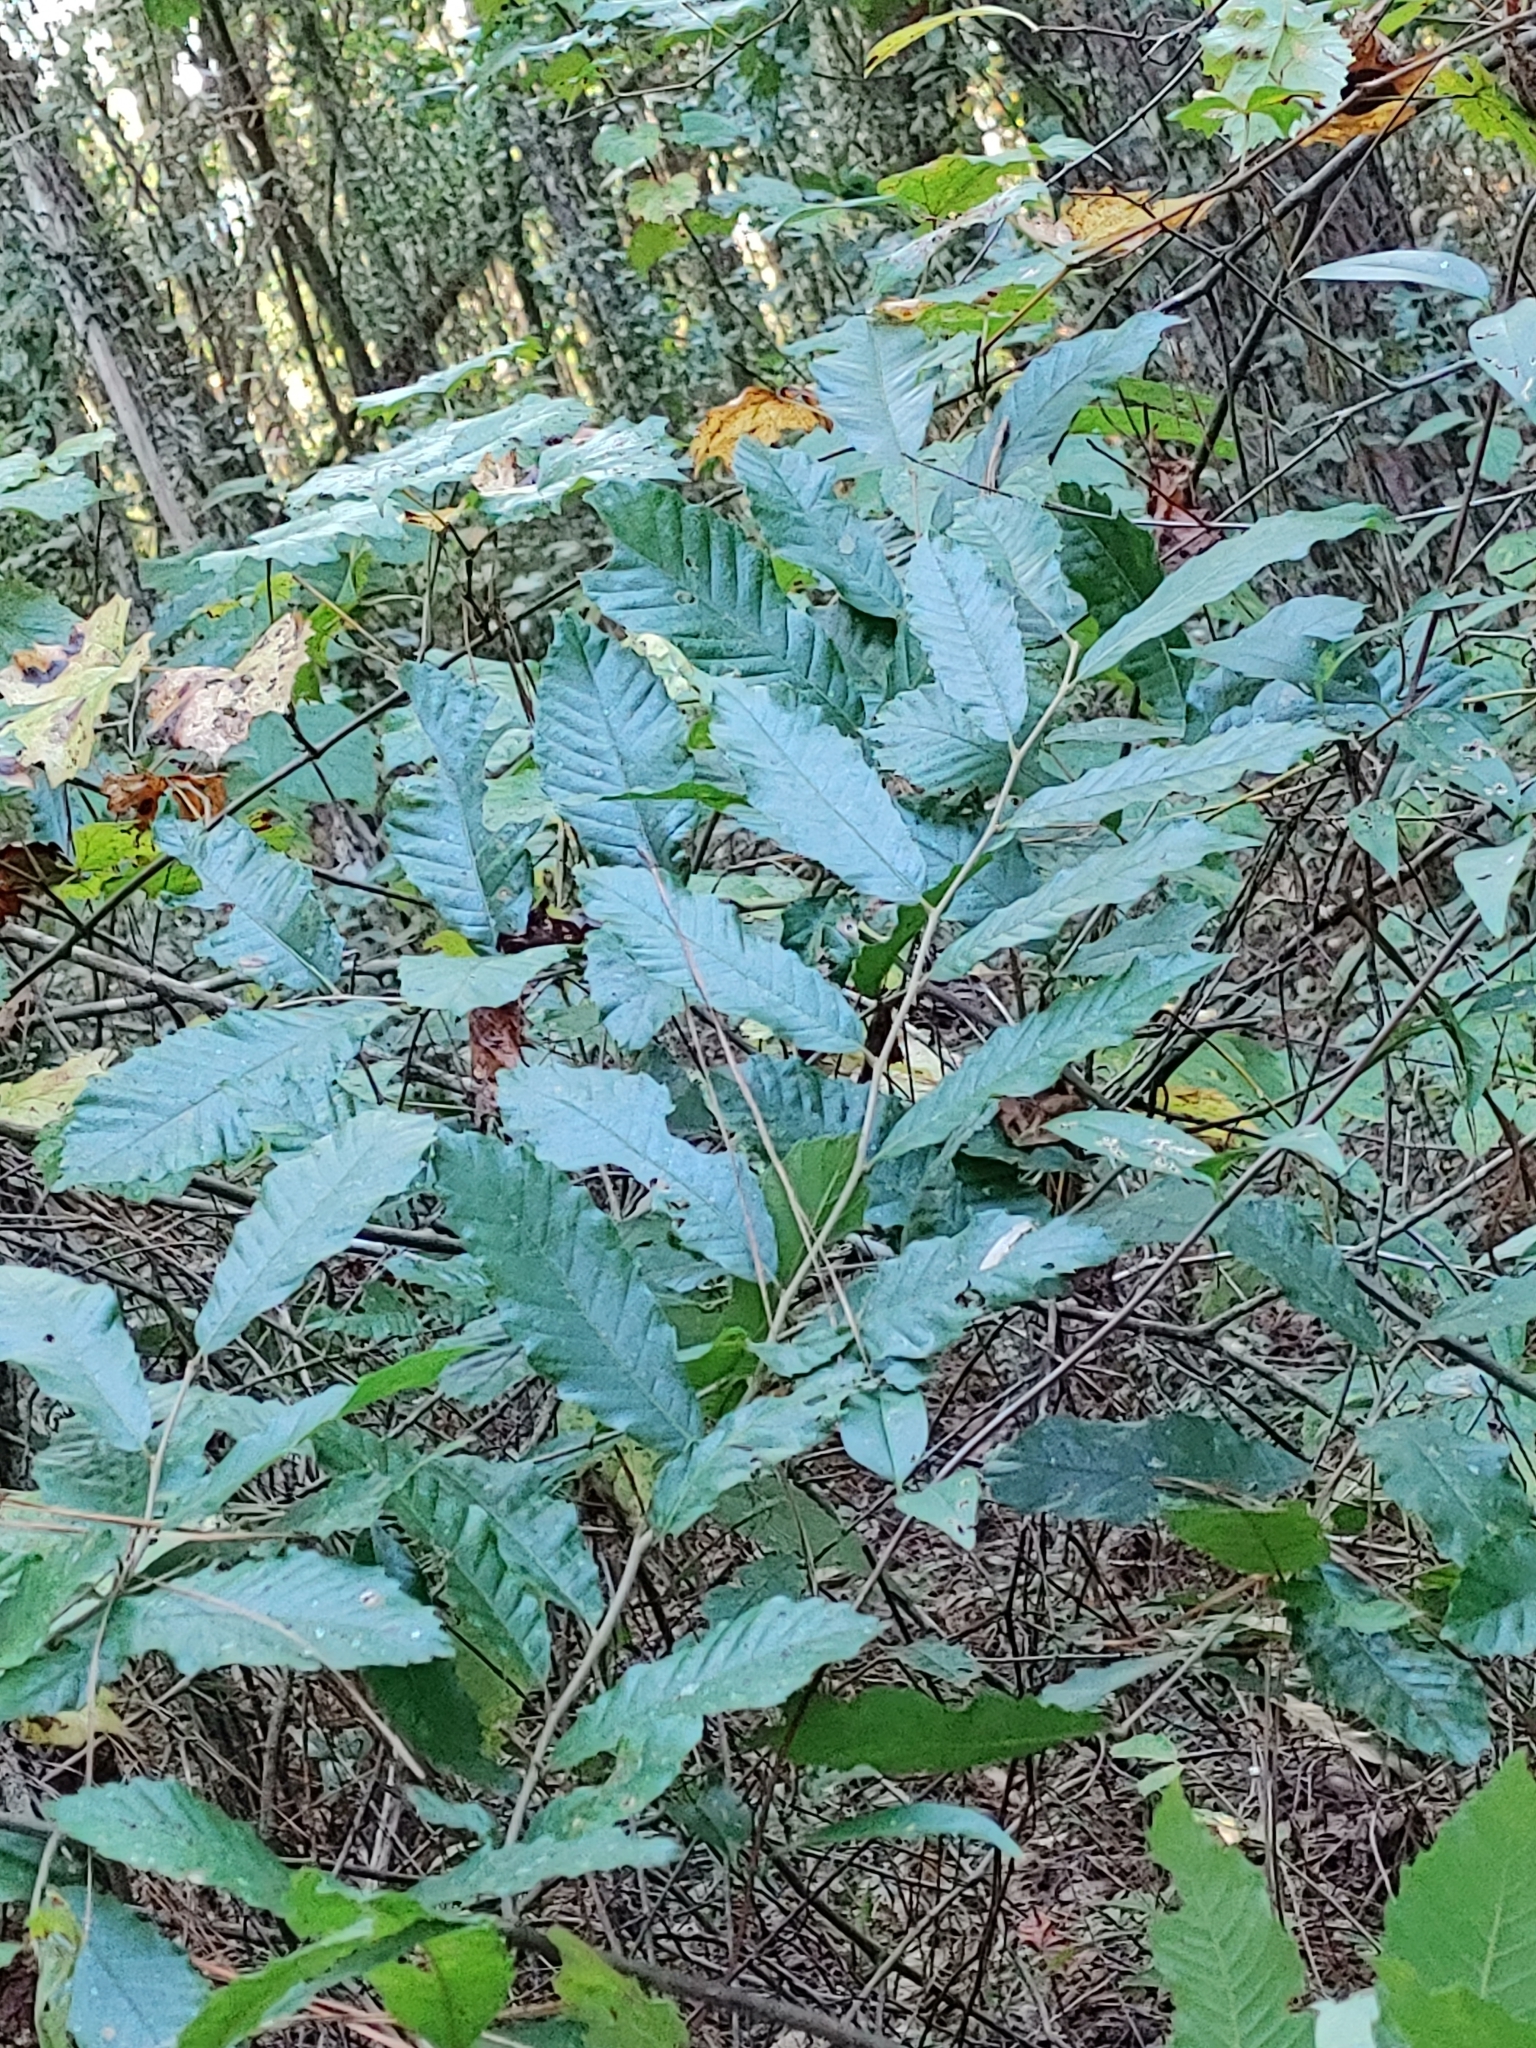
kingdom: Plantae
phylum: Tracheophyta
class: Magnoliopsida
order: Fagales
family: Fagaceae
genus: Castanea
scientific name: Castanea pumila
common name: Chinkapin
